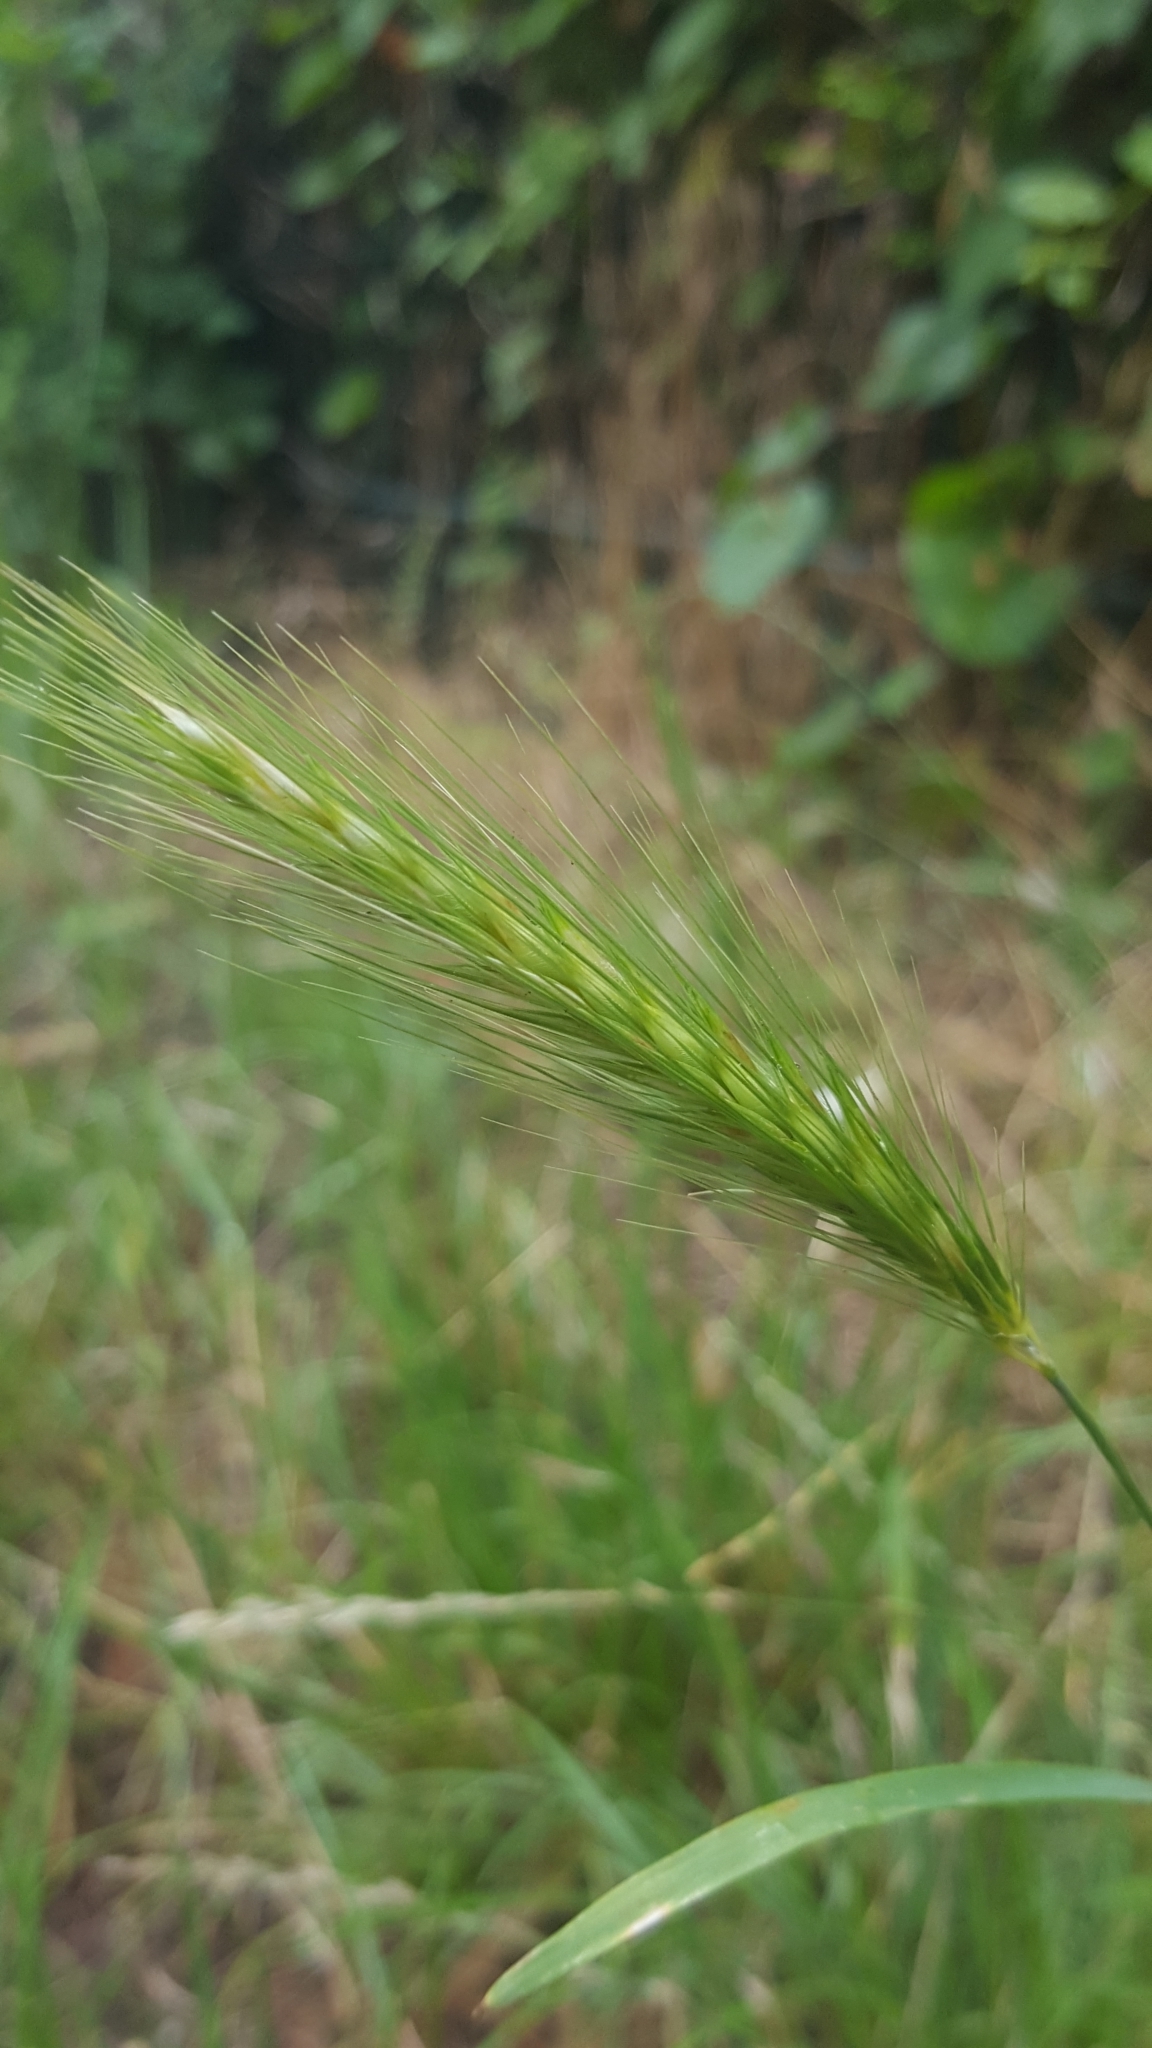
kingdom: Plantae
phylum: Tracheophyta
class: Liliopsida
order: Poales
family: Poaceae
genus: Hordeum
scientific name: Hordeum murinum
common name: Wall barley
